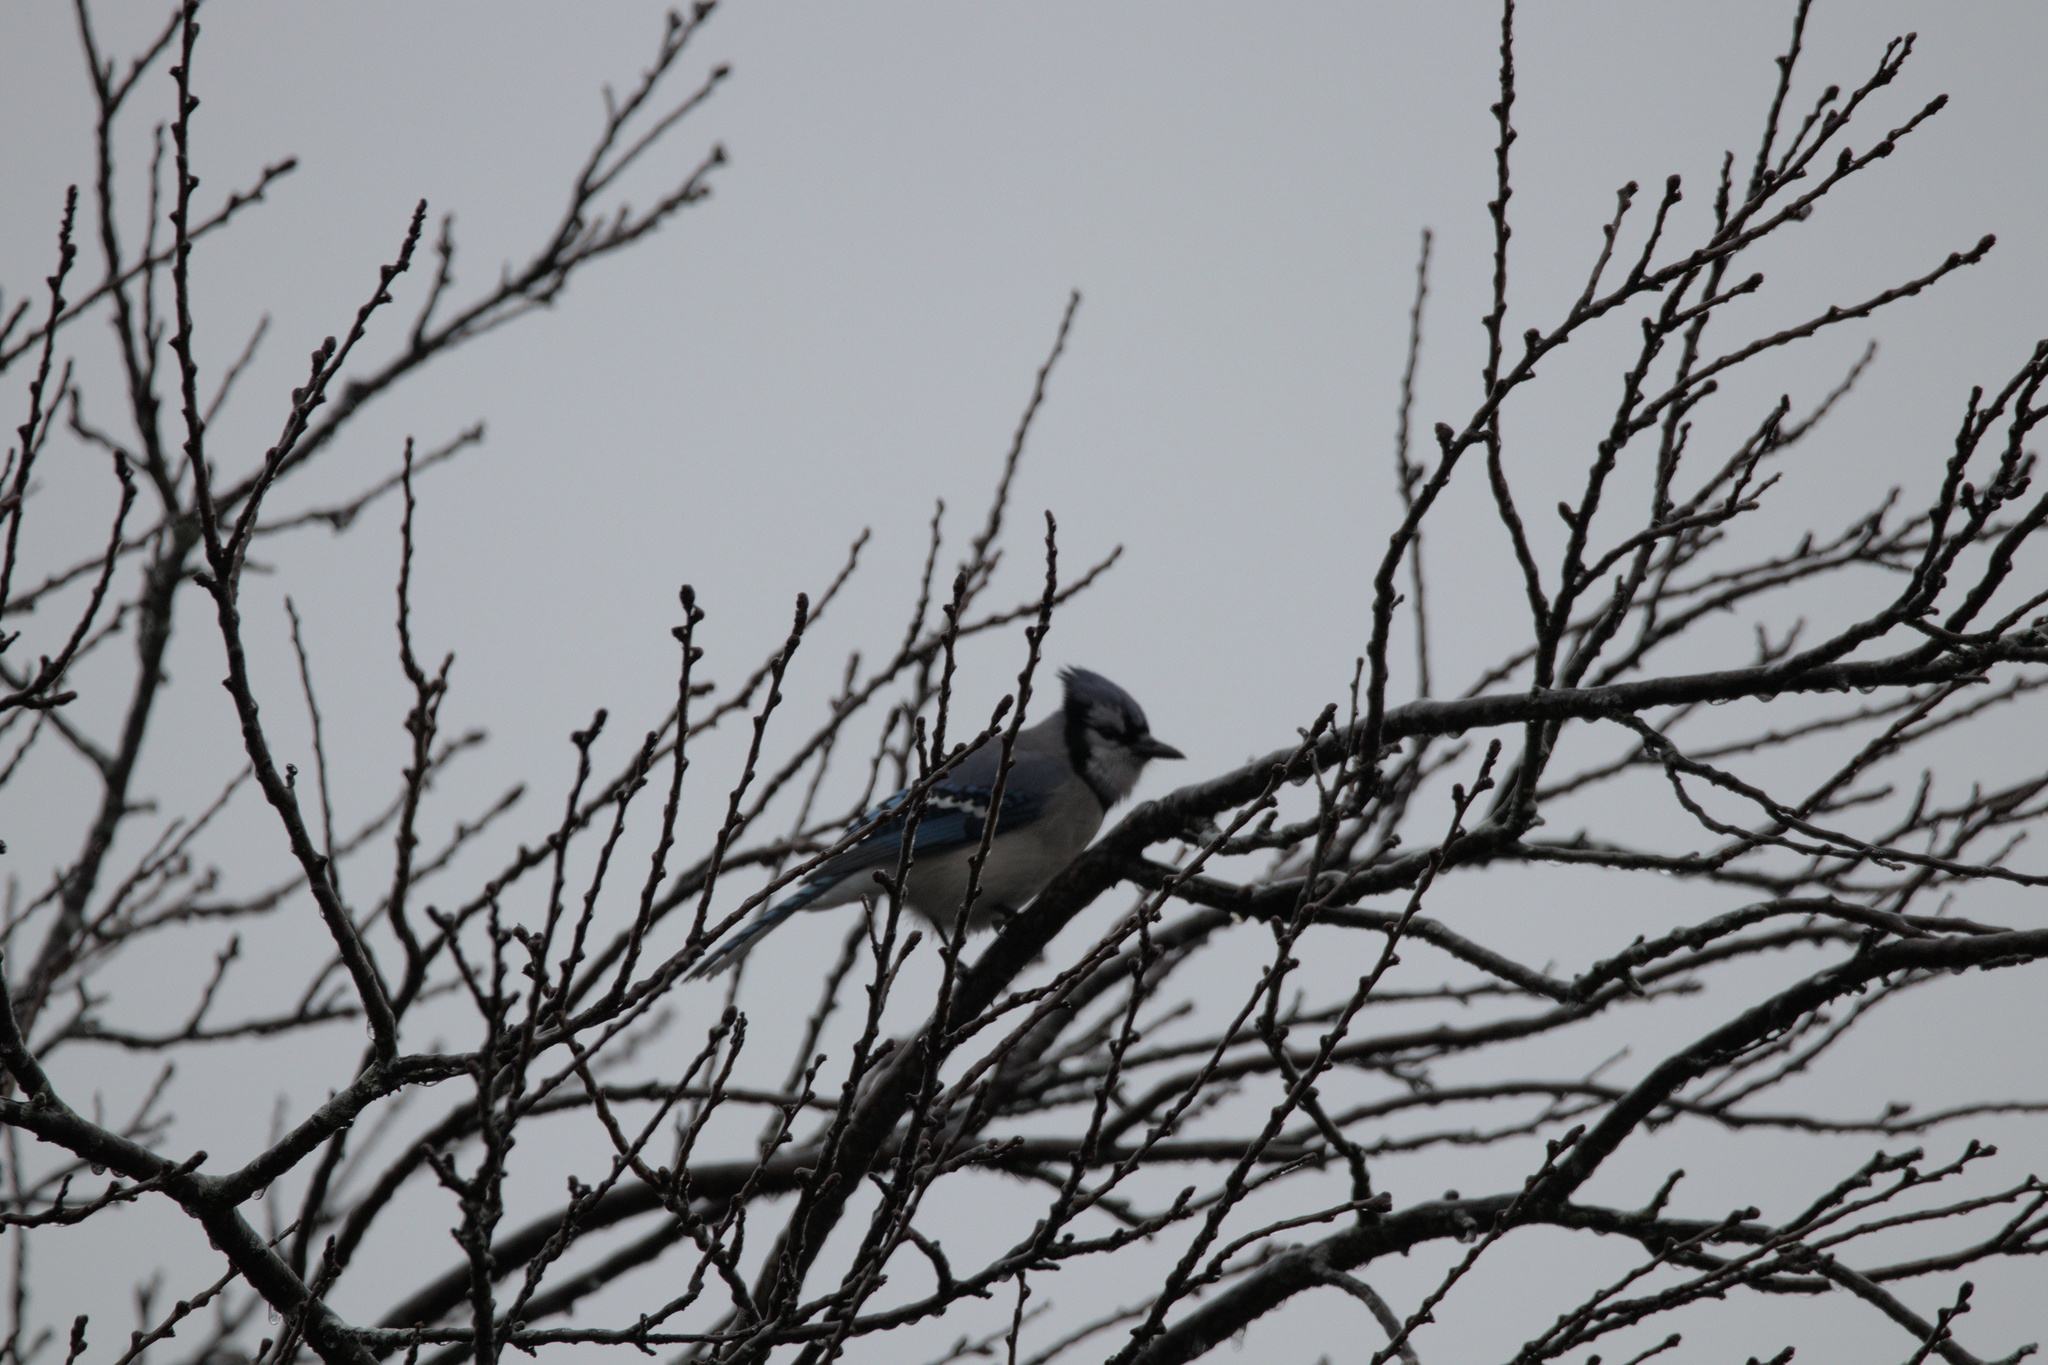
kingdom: Animalia
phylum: Chordata
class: Aves
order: Passeriformes
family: Corvidae
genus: Cyanocitta
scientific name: Cyanocitta cristata
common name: Blue jay
